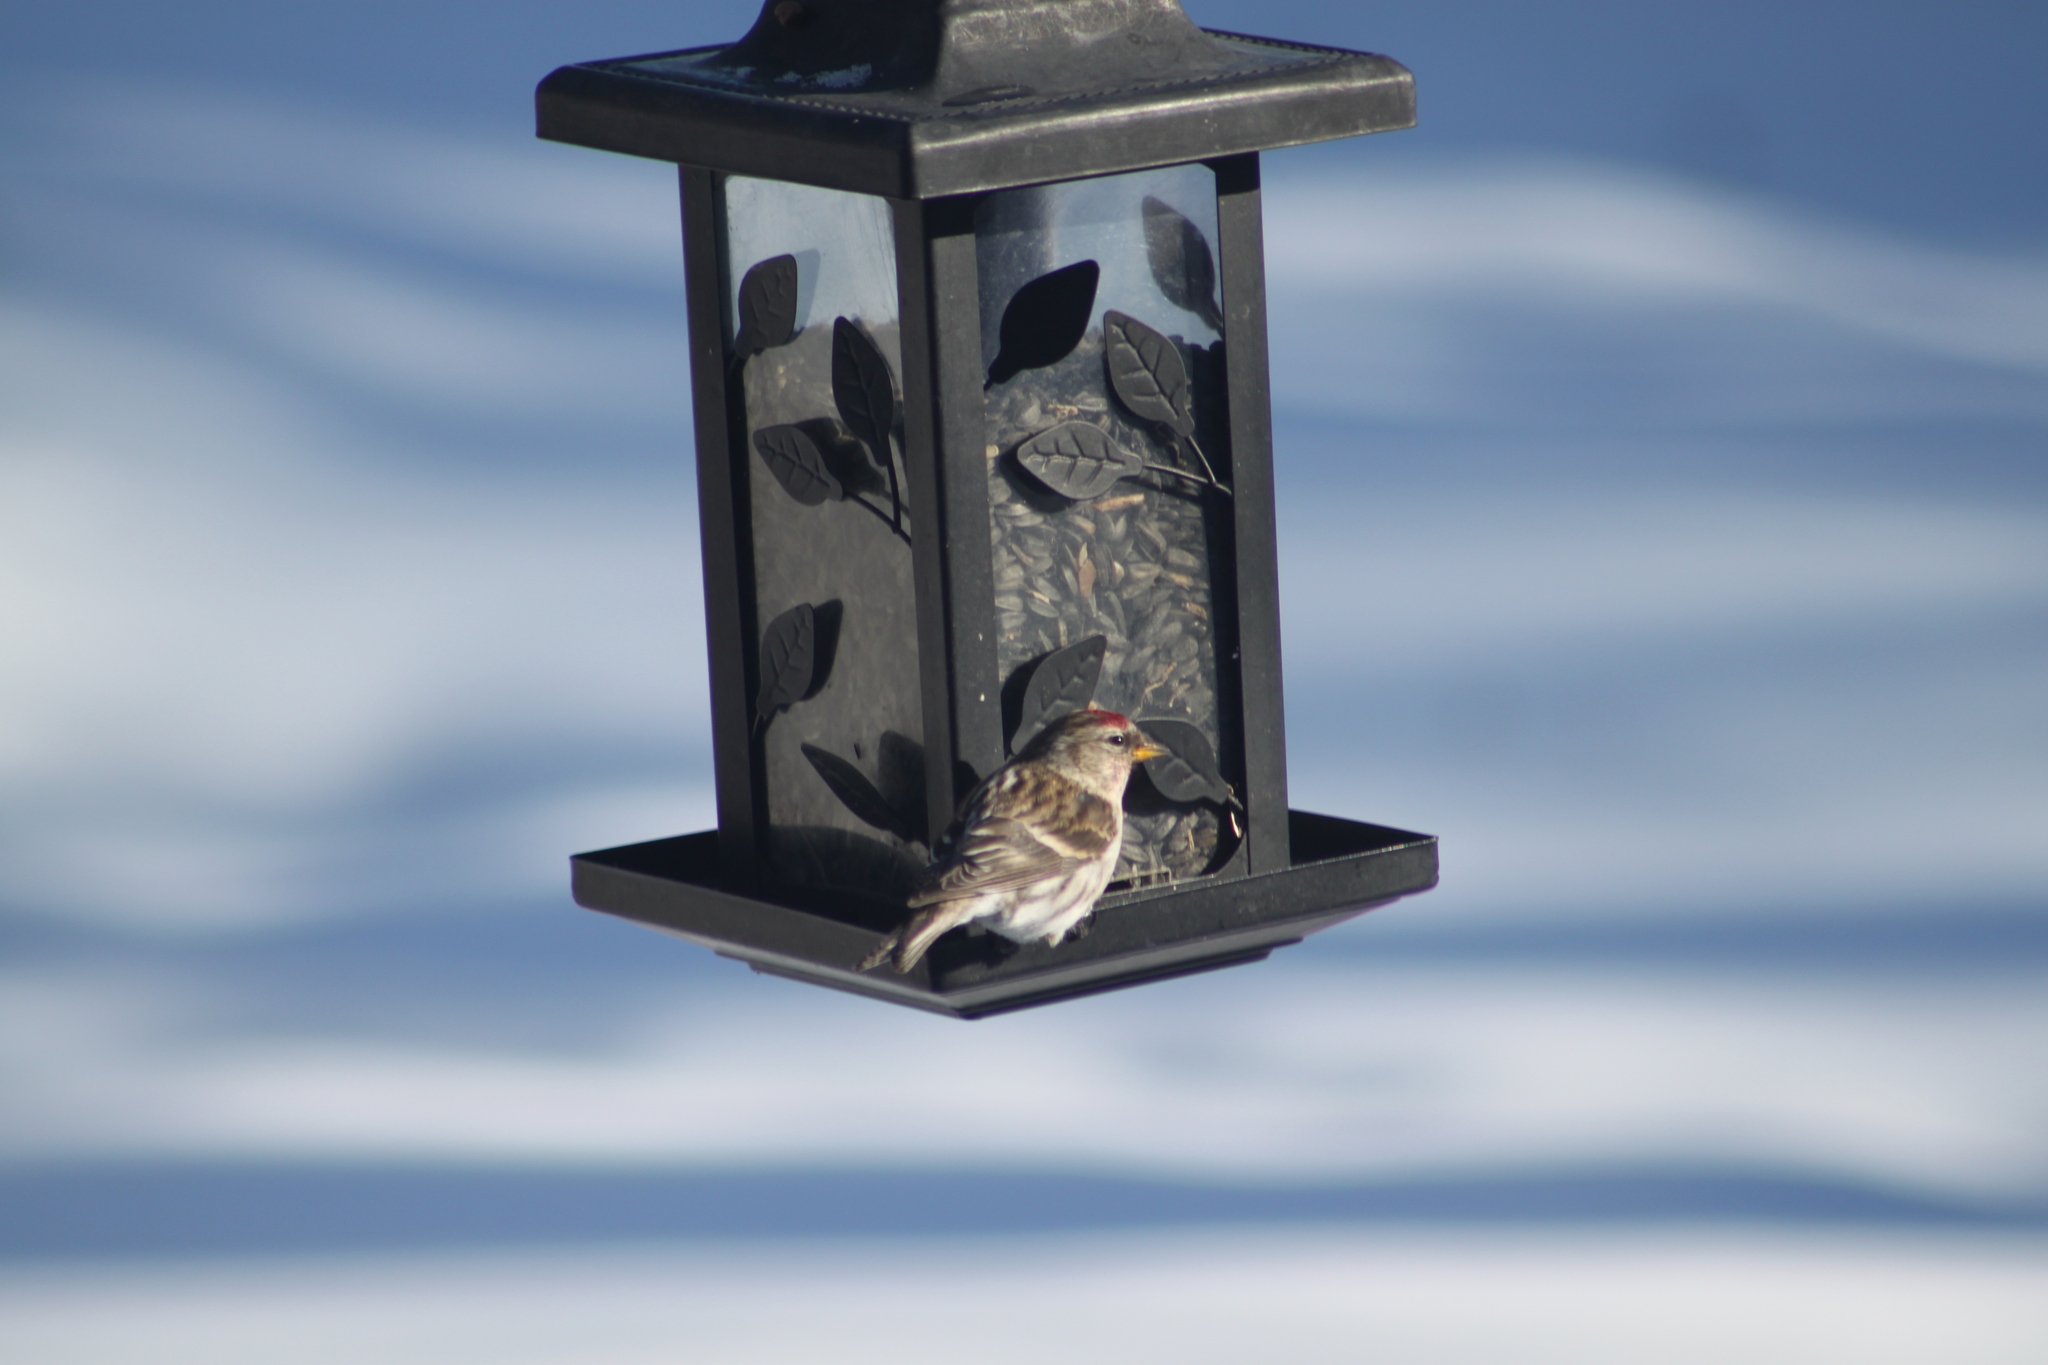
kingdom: Animalia
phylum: Chordata
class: Aves
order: Passeriformes
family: Fringillidae
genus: Acanthis
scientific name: Acanthis flammea
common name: Common redpoll
